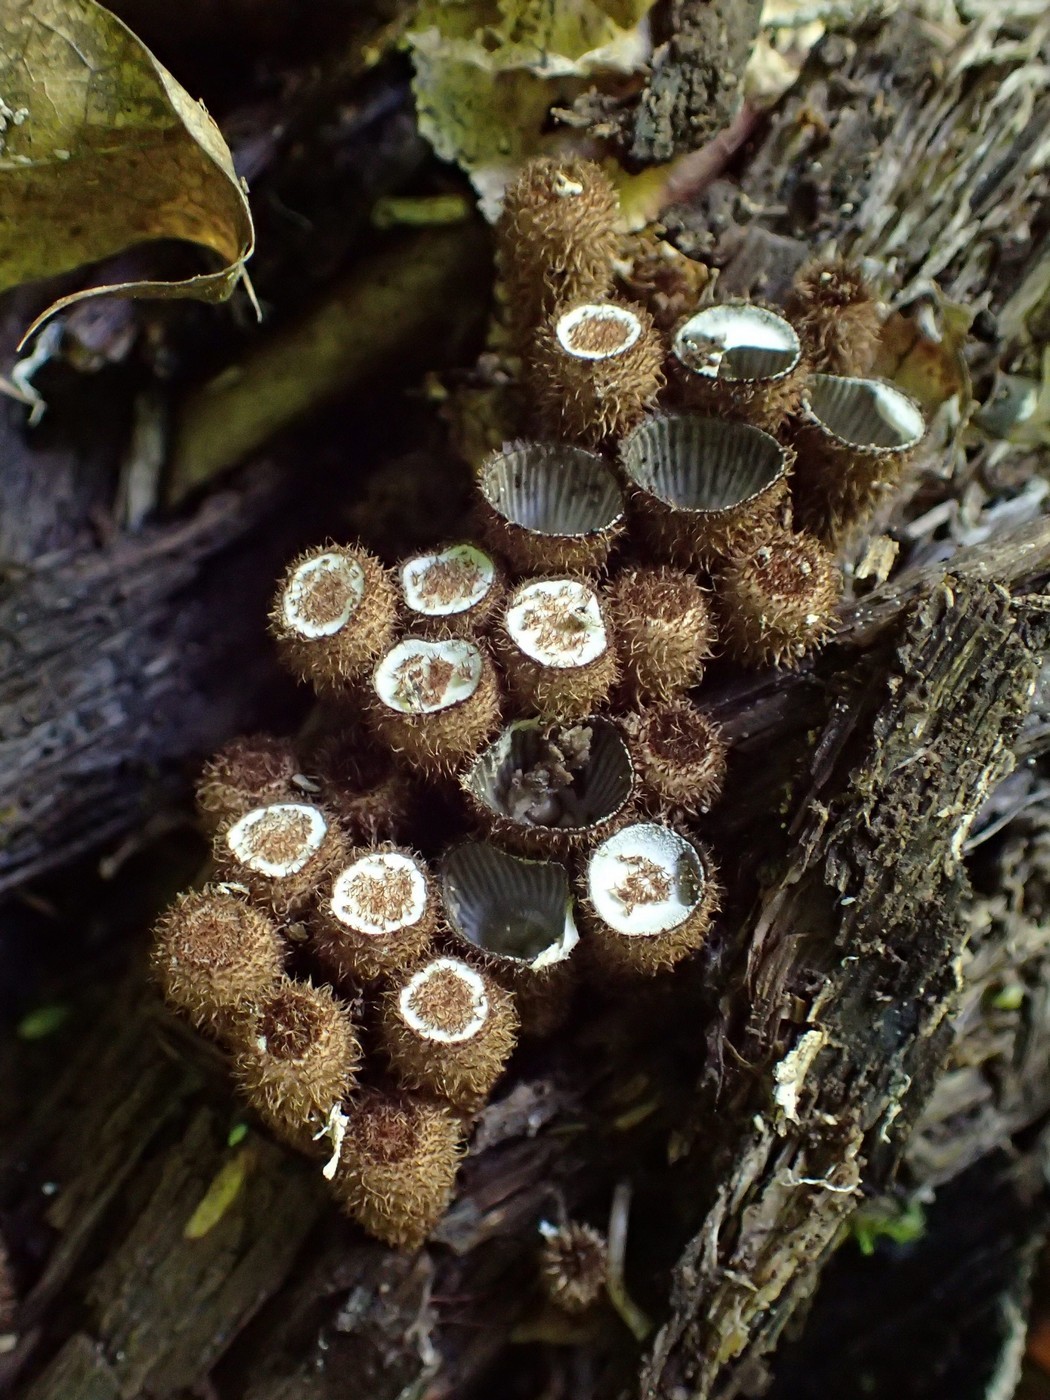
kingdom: Fungi
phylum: Basidiomycota
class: Agaricomycetes
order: Agaricales
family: Agaricaceae
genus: Cyathus
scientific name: Cyathus striatus
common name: Fluted bird's nest
